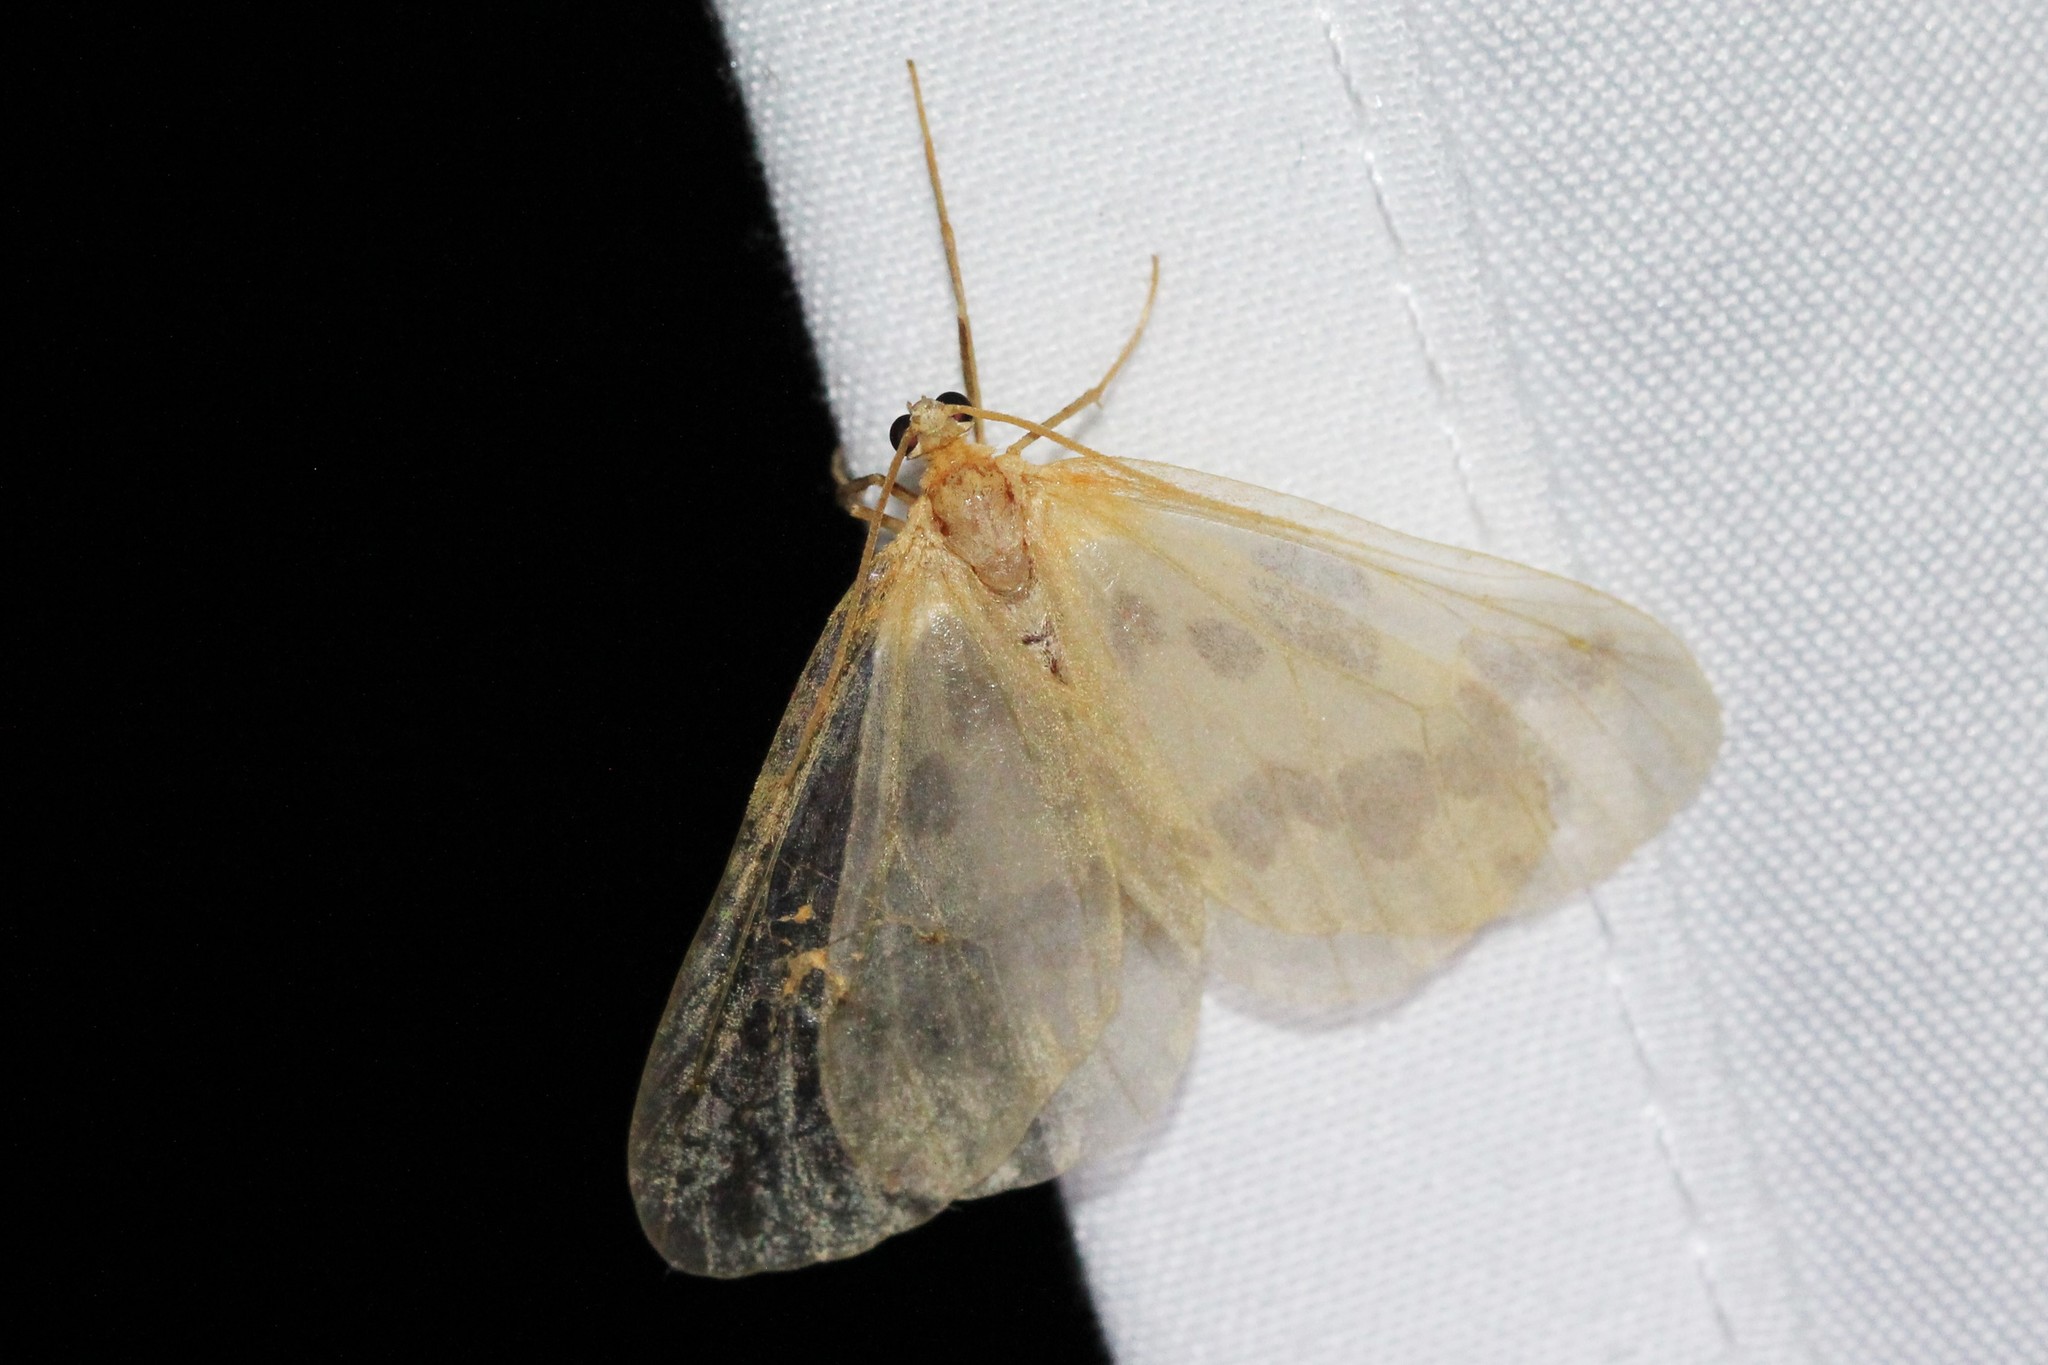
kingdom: Animalia
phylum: Arthropoda
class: Insecta
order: Lepidoptera
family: Geometridae
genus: Eubaphe
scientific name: Eubaphe mendica
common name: Beggar
